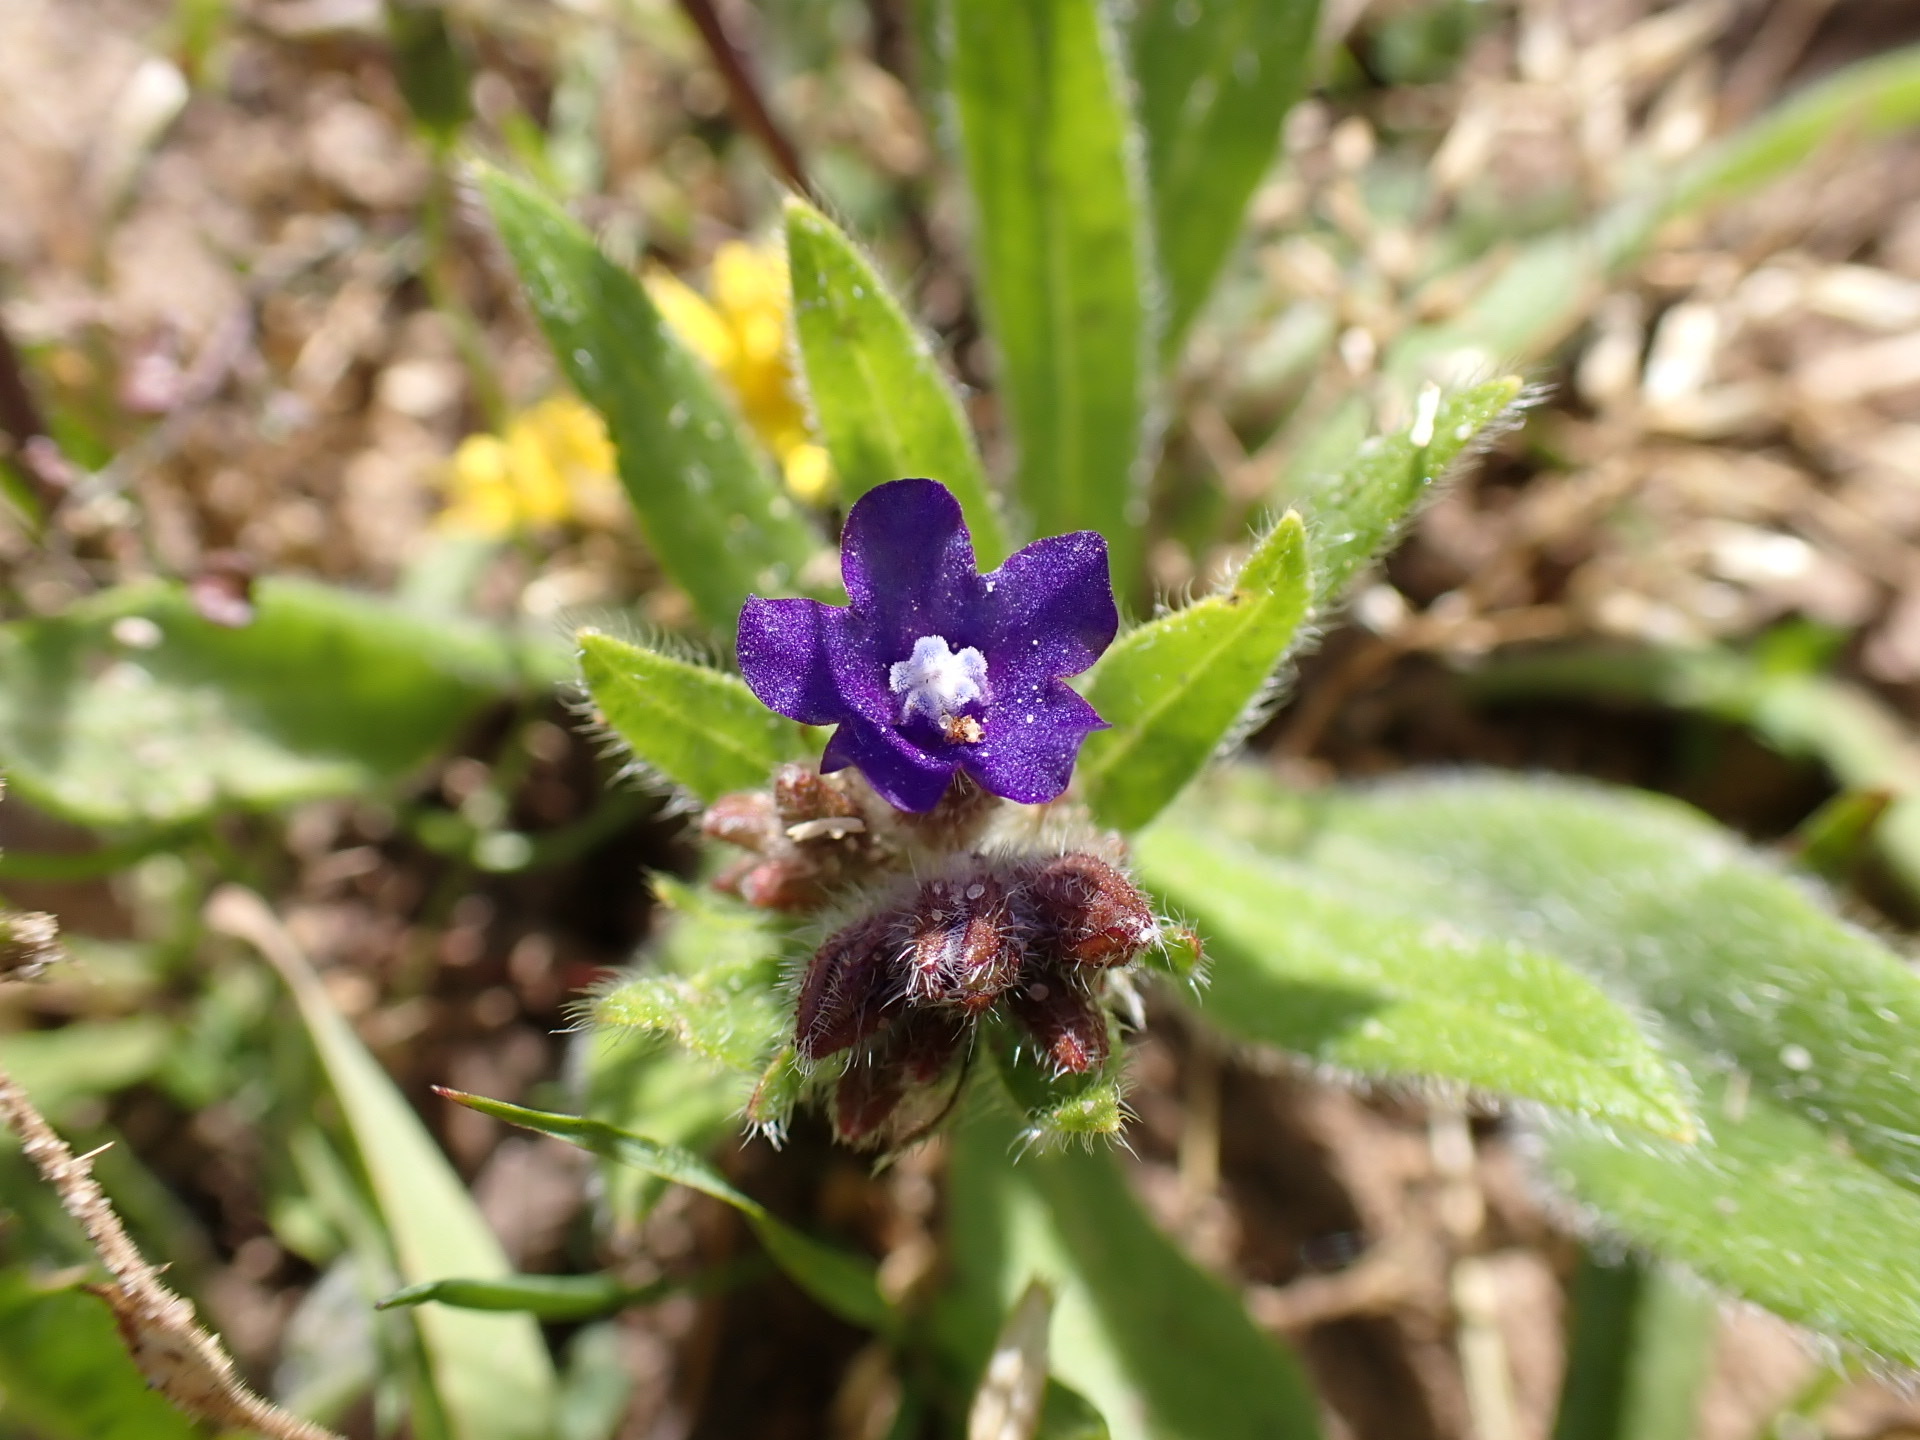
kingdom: Plantae
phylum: Tracheophyta
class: Magnoliopsida
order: Boraginales
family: Boraginaceae
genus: Anchusa
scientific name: Anchusa officinalis
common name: Alkanet
